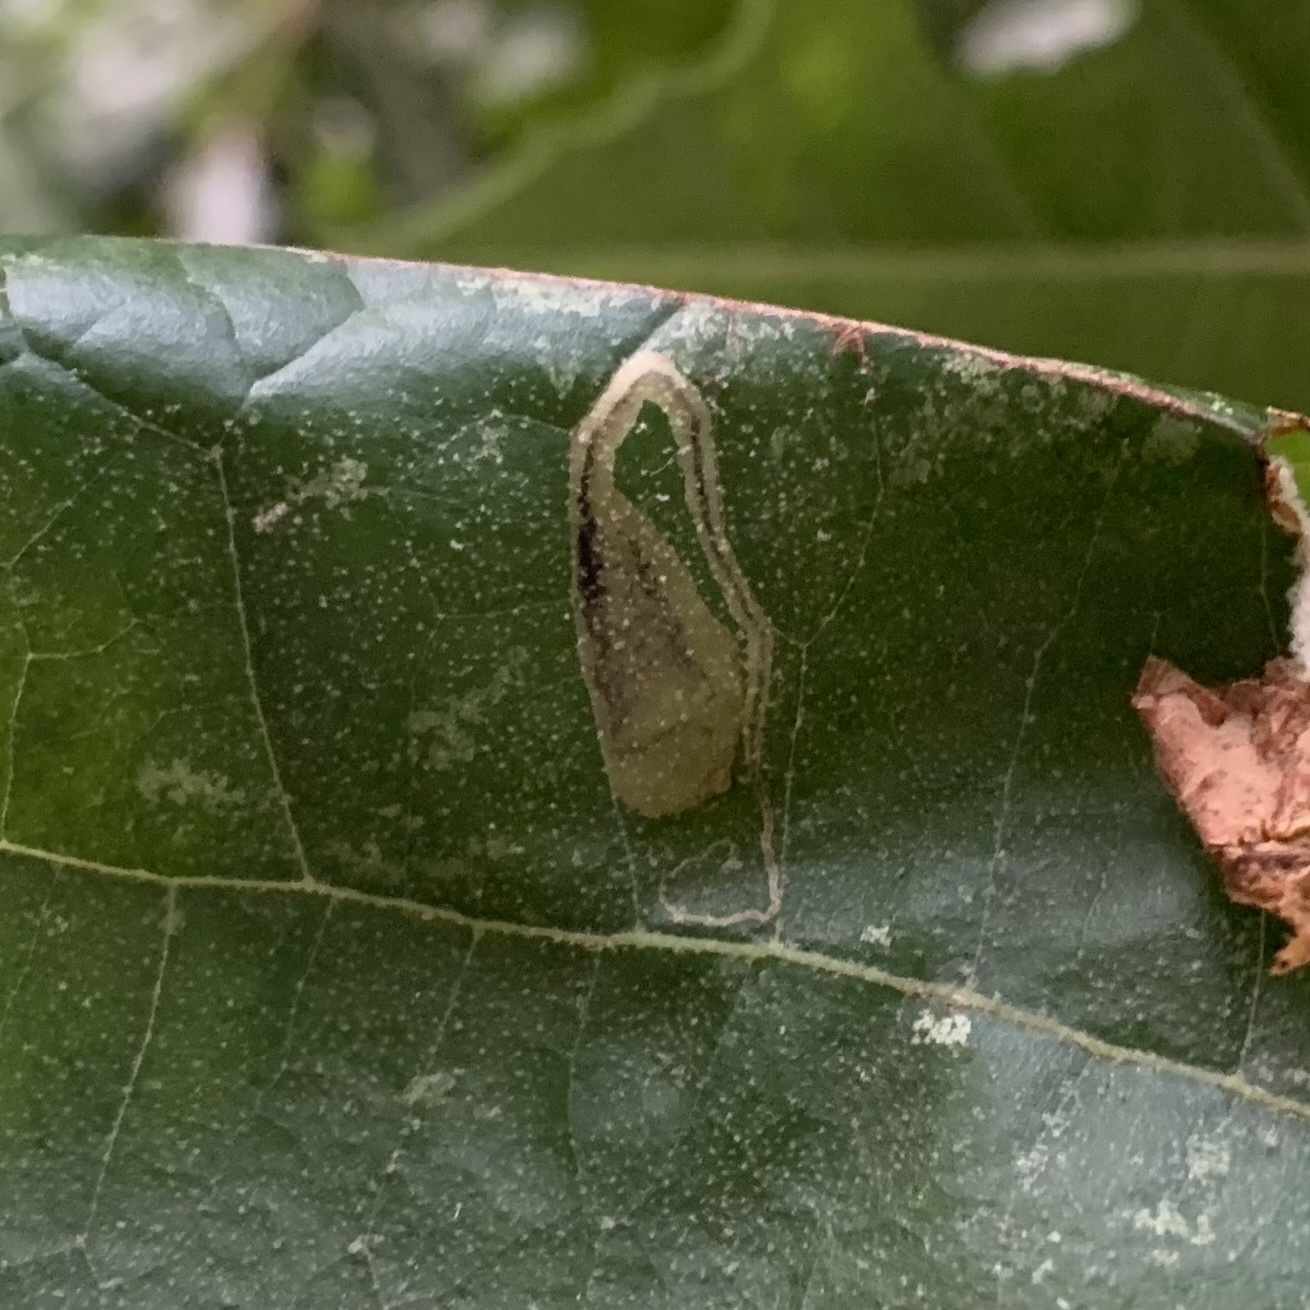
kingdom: Animalia
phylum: Arthropoda
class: Insecta
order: Lepidoptera
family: Nepticulidae
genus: Ectoedemia
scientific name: Ectoedemia clemensella
